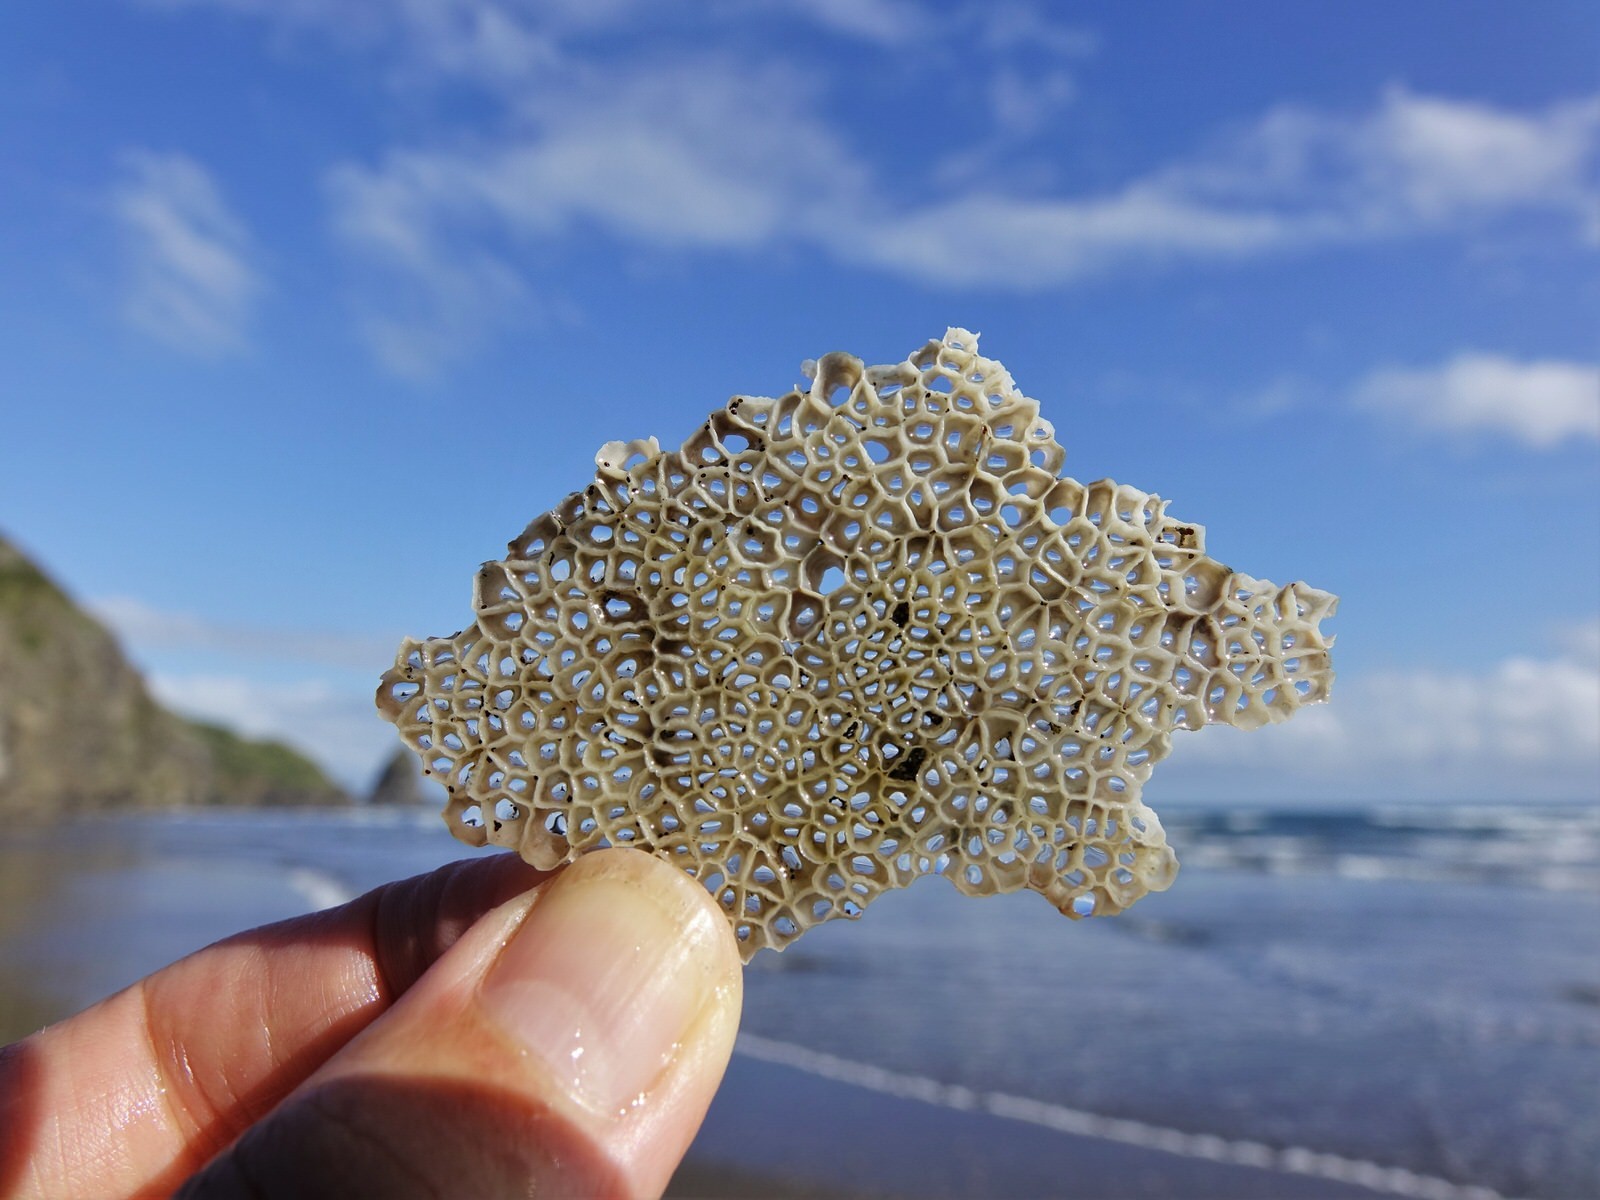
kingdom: Animalia
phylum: Arthropoda
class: Maxillopoda
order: Sessilia
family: Chthamalidae
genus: Chamaesipho
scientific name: Chamaesipho columna
